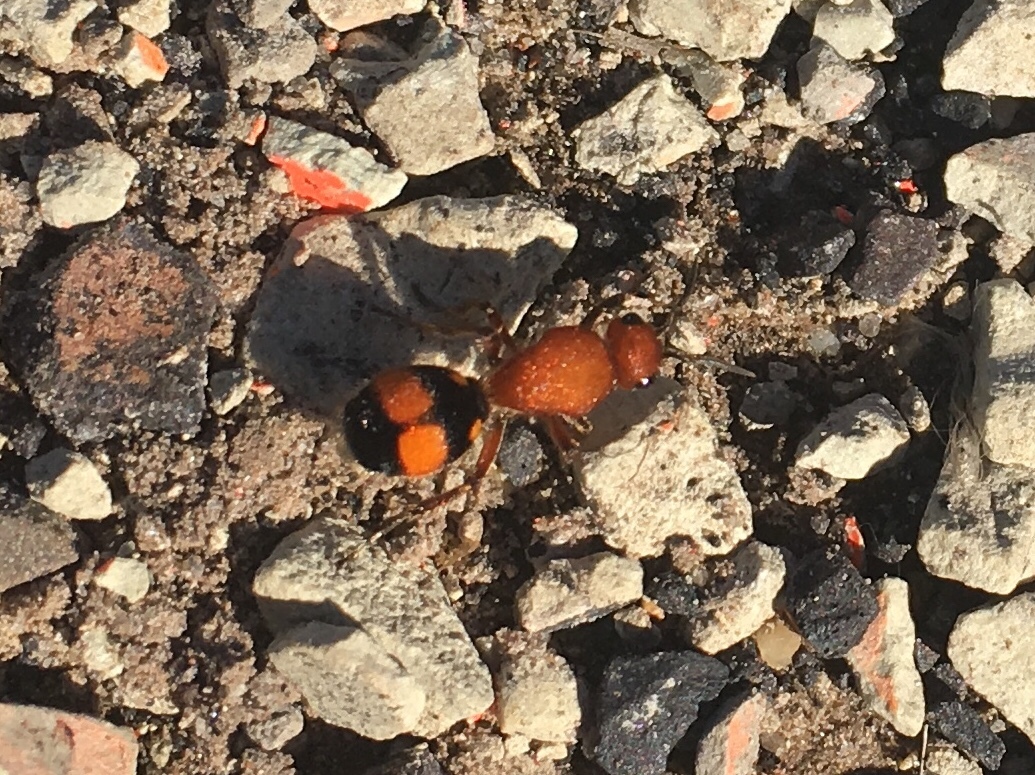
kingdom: Animalia
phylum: Arthropoda
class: Insecta
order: Hymenoptera
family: Mutillidae
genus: Dasymutilla
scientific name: Dasymutilla
